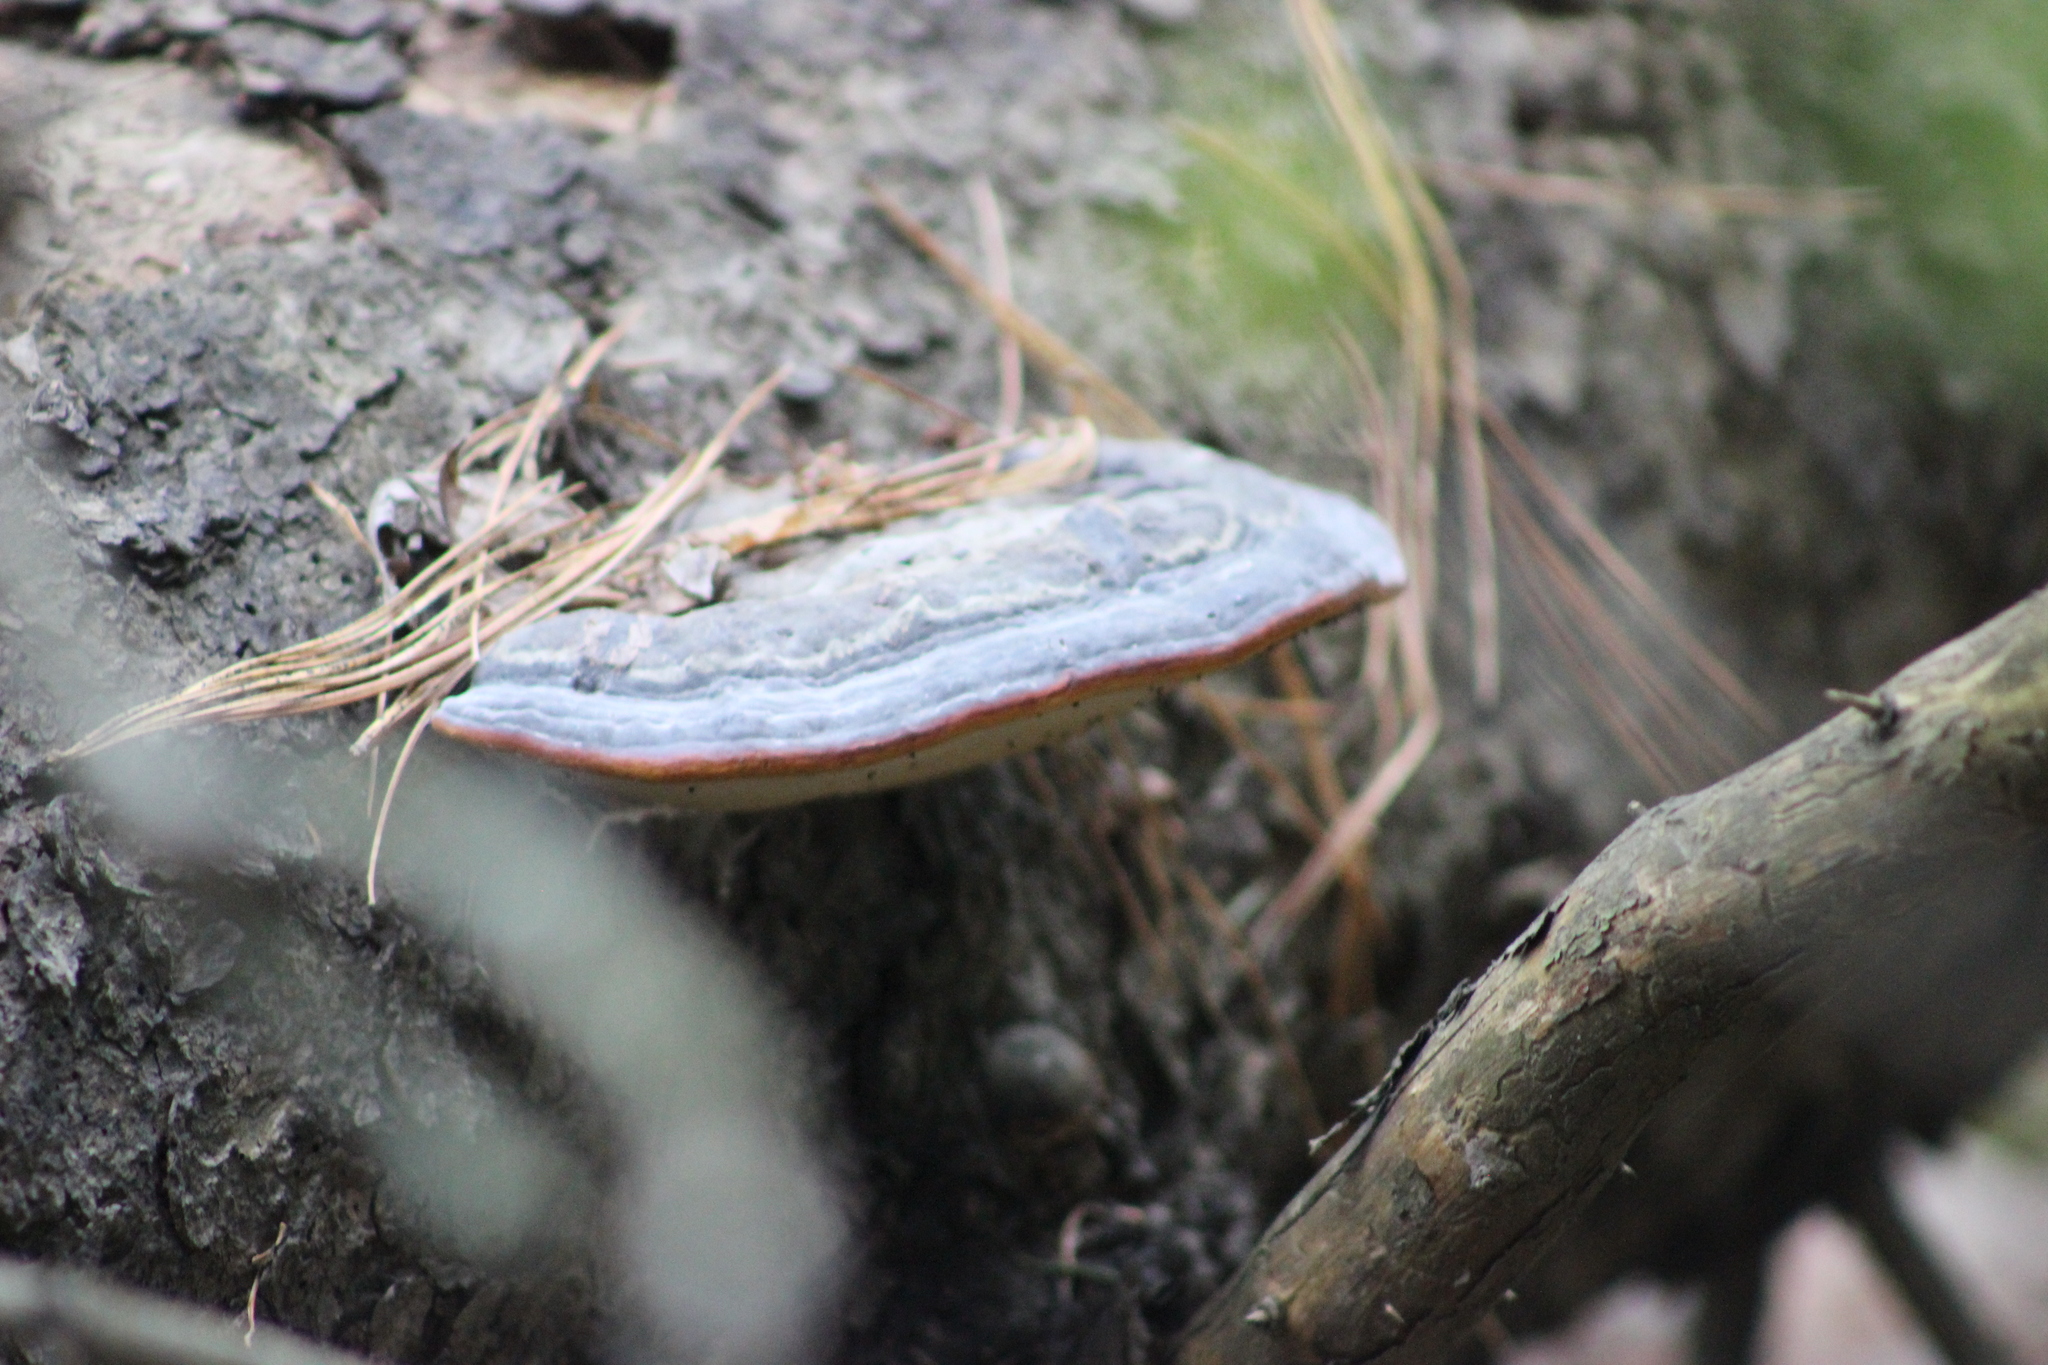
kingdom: Fungi
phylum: Basidiomycota
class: Agaricomycetes
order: Polyporales
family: Fomitopsidaceae
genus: Fomitopsis
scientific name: Fomitopsis pinicola
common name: Red-belted bracket
